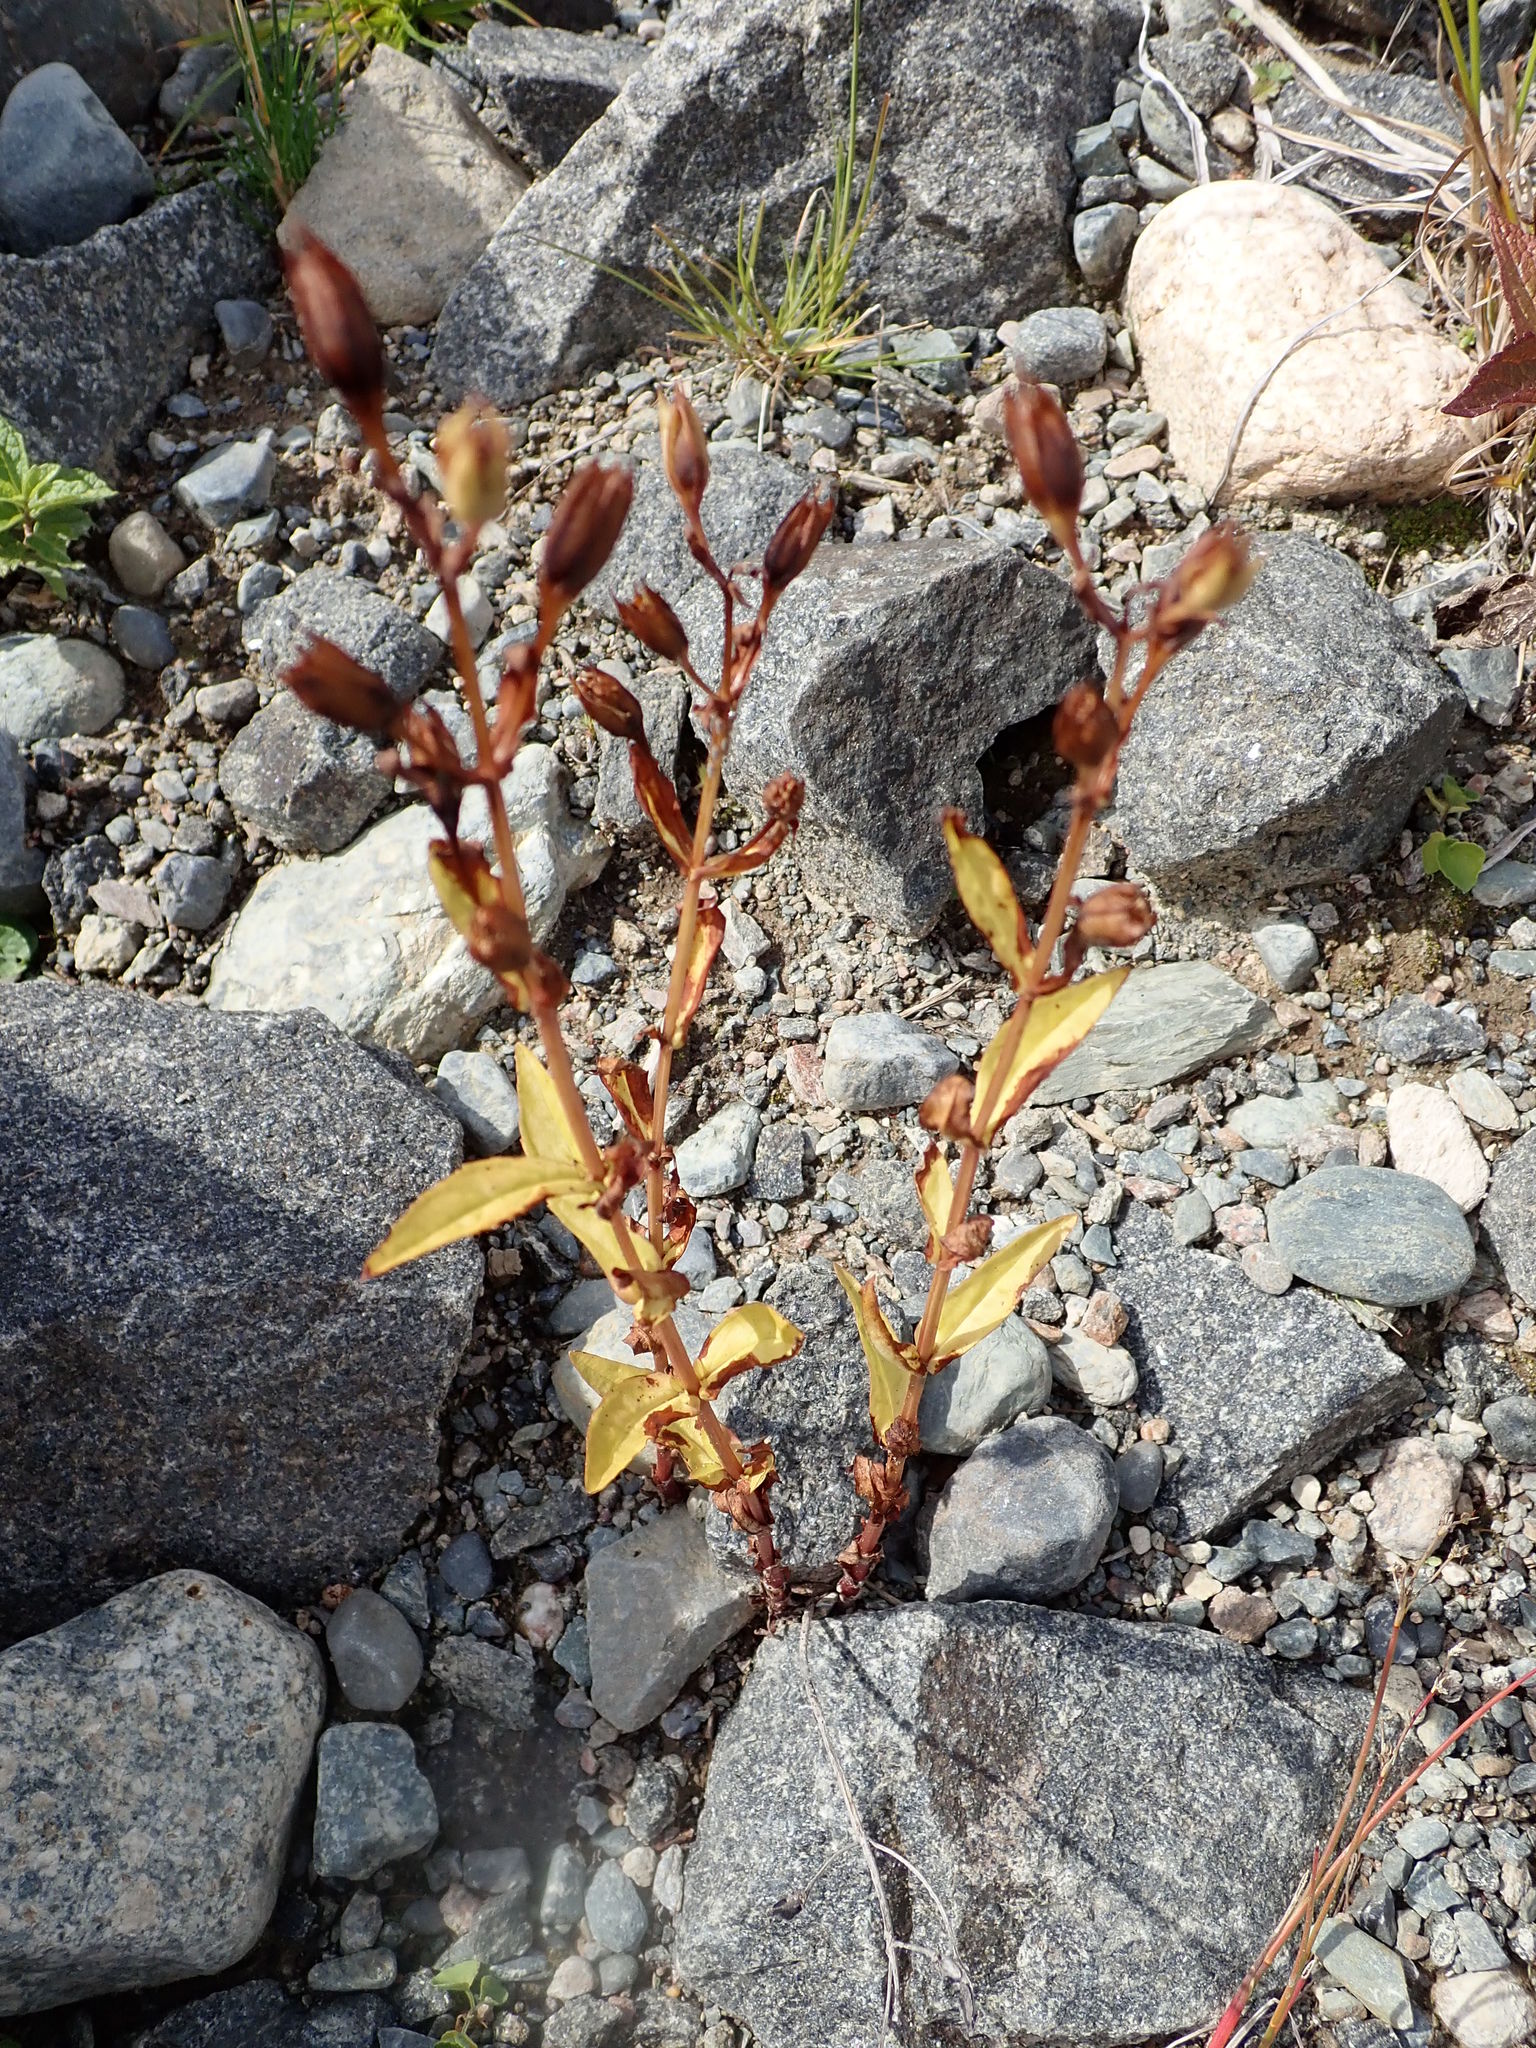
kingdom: Plantae
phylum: Tracheophyta
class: Magnoliopsida
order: Lamiales
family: Phrymaceae
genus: Mimulus
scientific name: Mimulus ringens
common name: Allegheny monkeyflower
